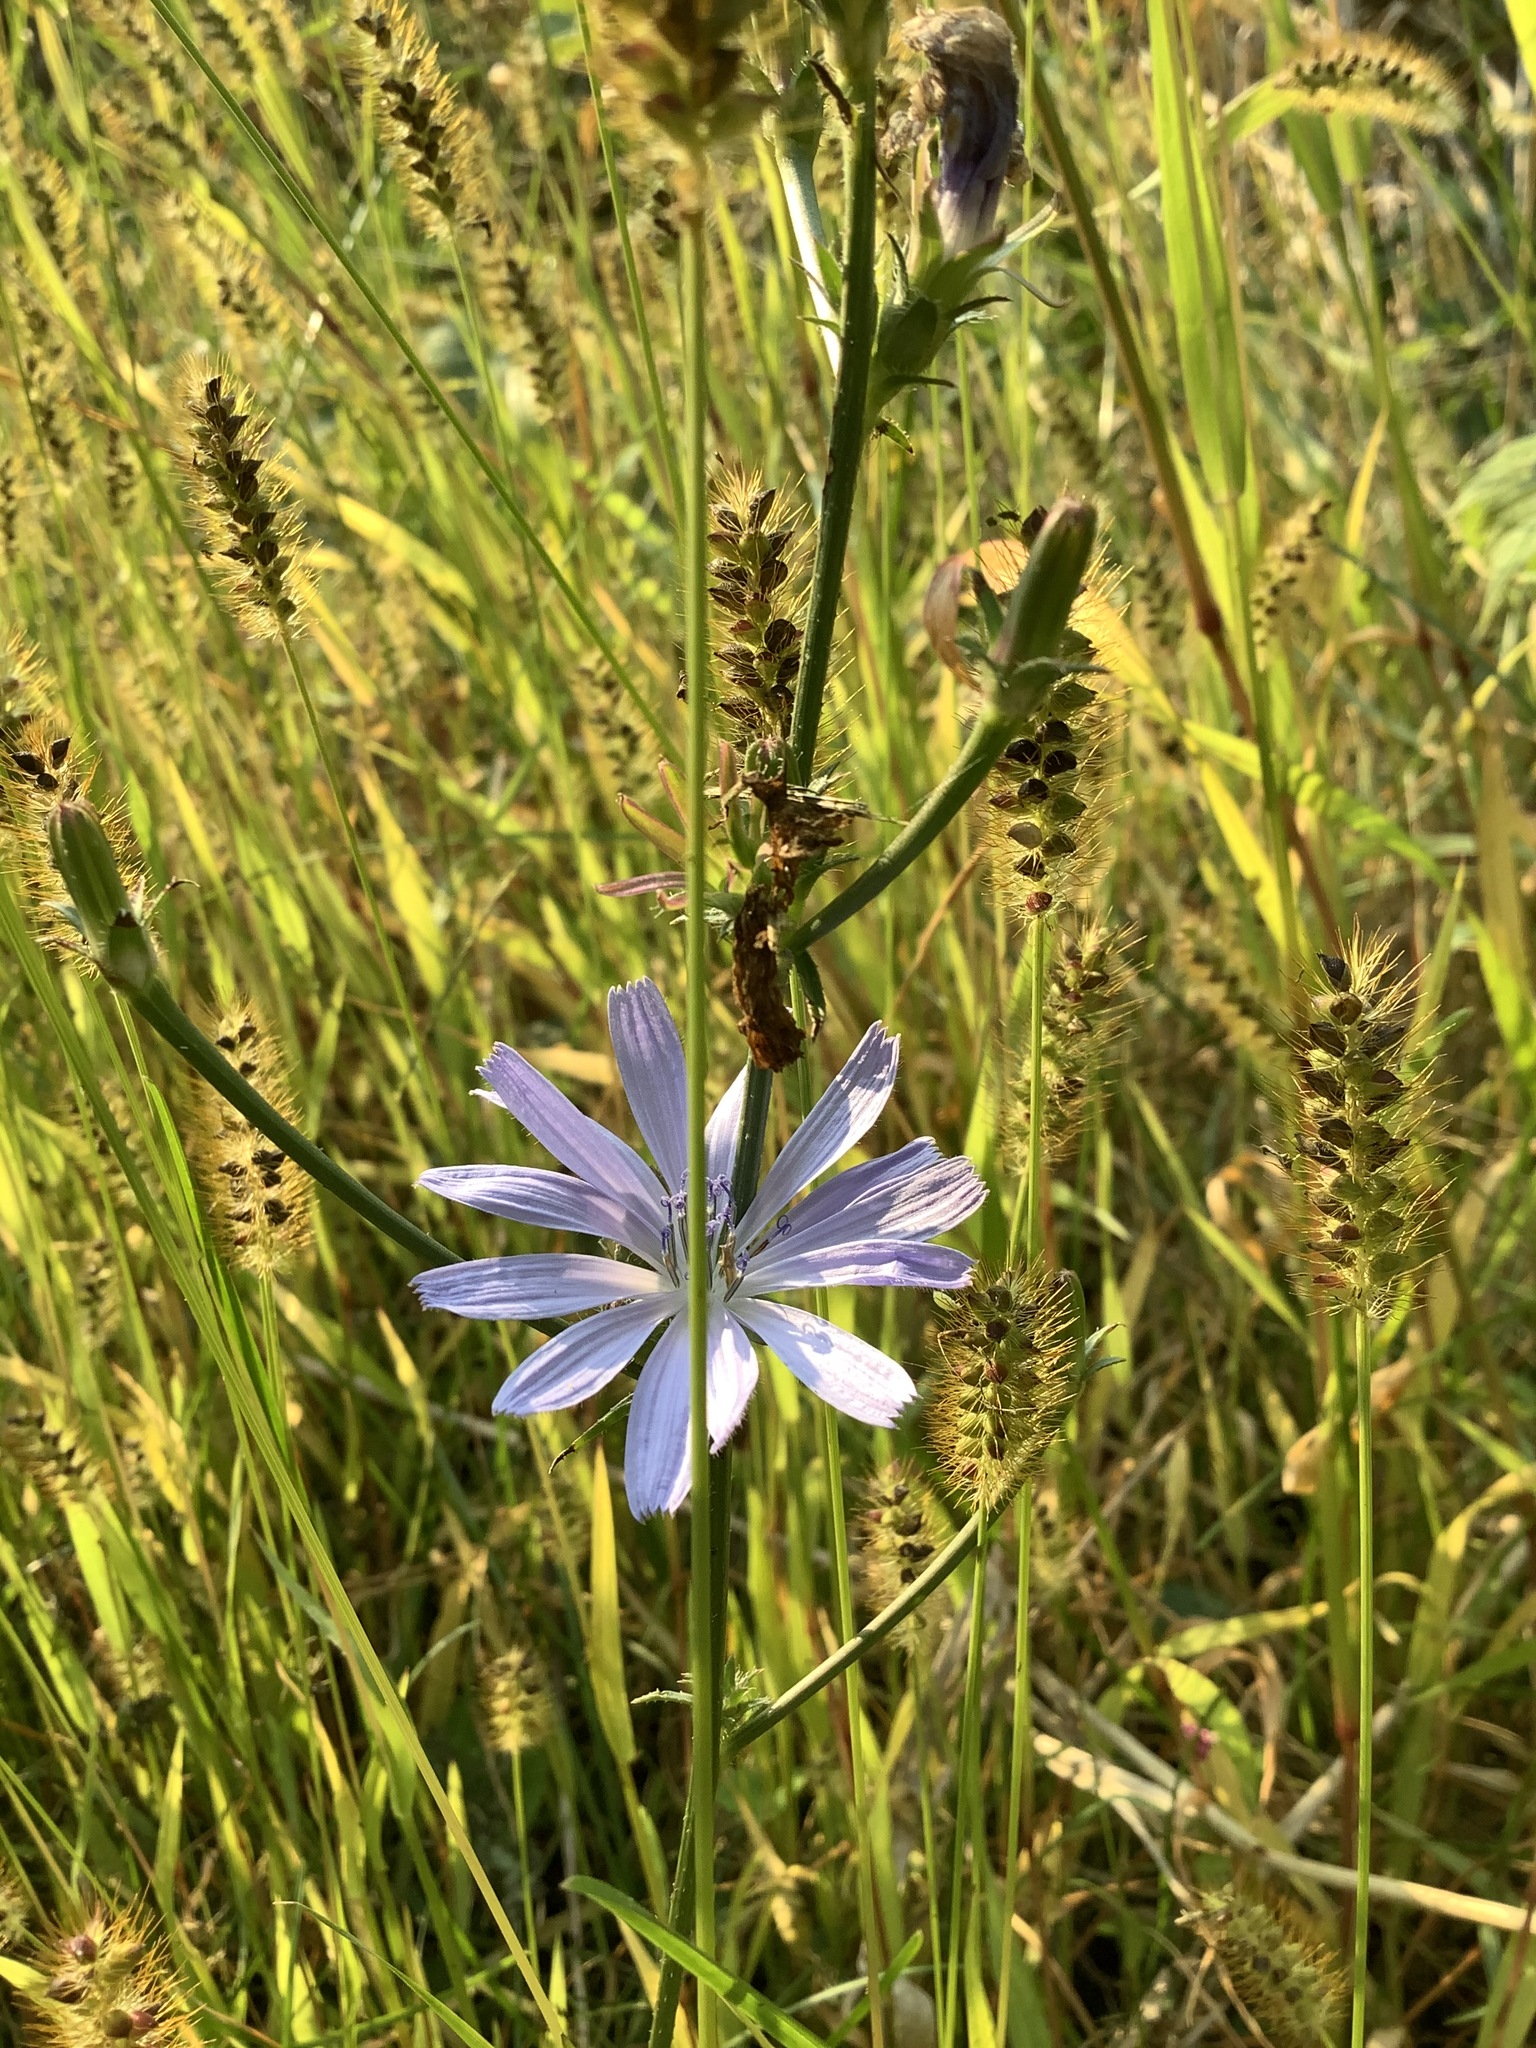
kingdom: Plantae
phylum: Tracheophyta
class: Magnoliopsida
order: Asterales
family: Asteraceae
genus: Cichorium
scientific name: Cichorium intybus
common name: Chicory
